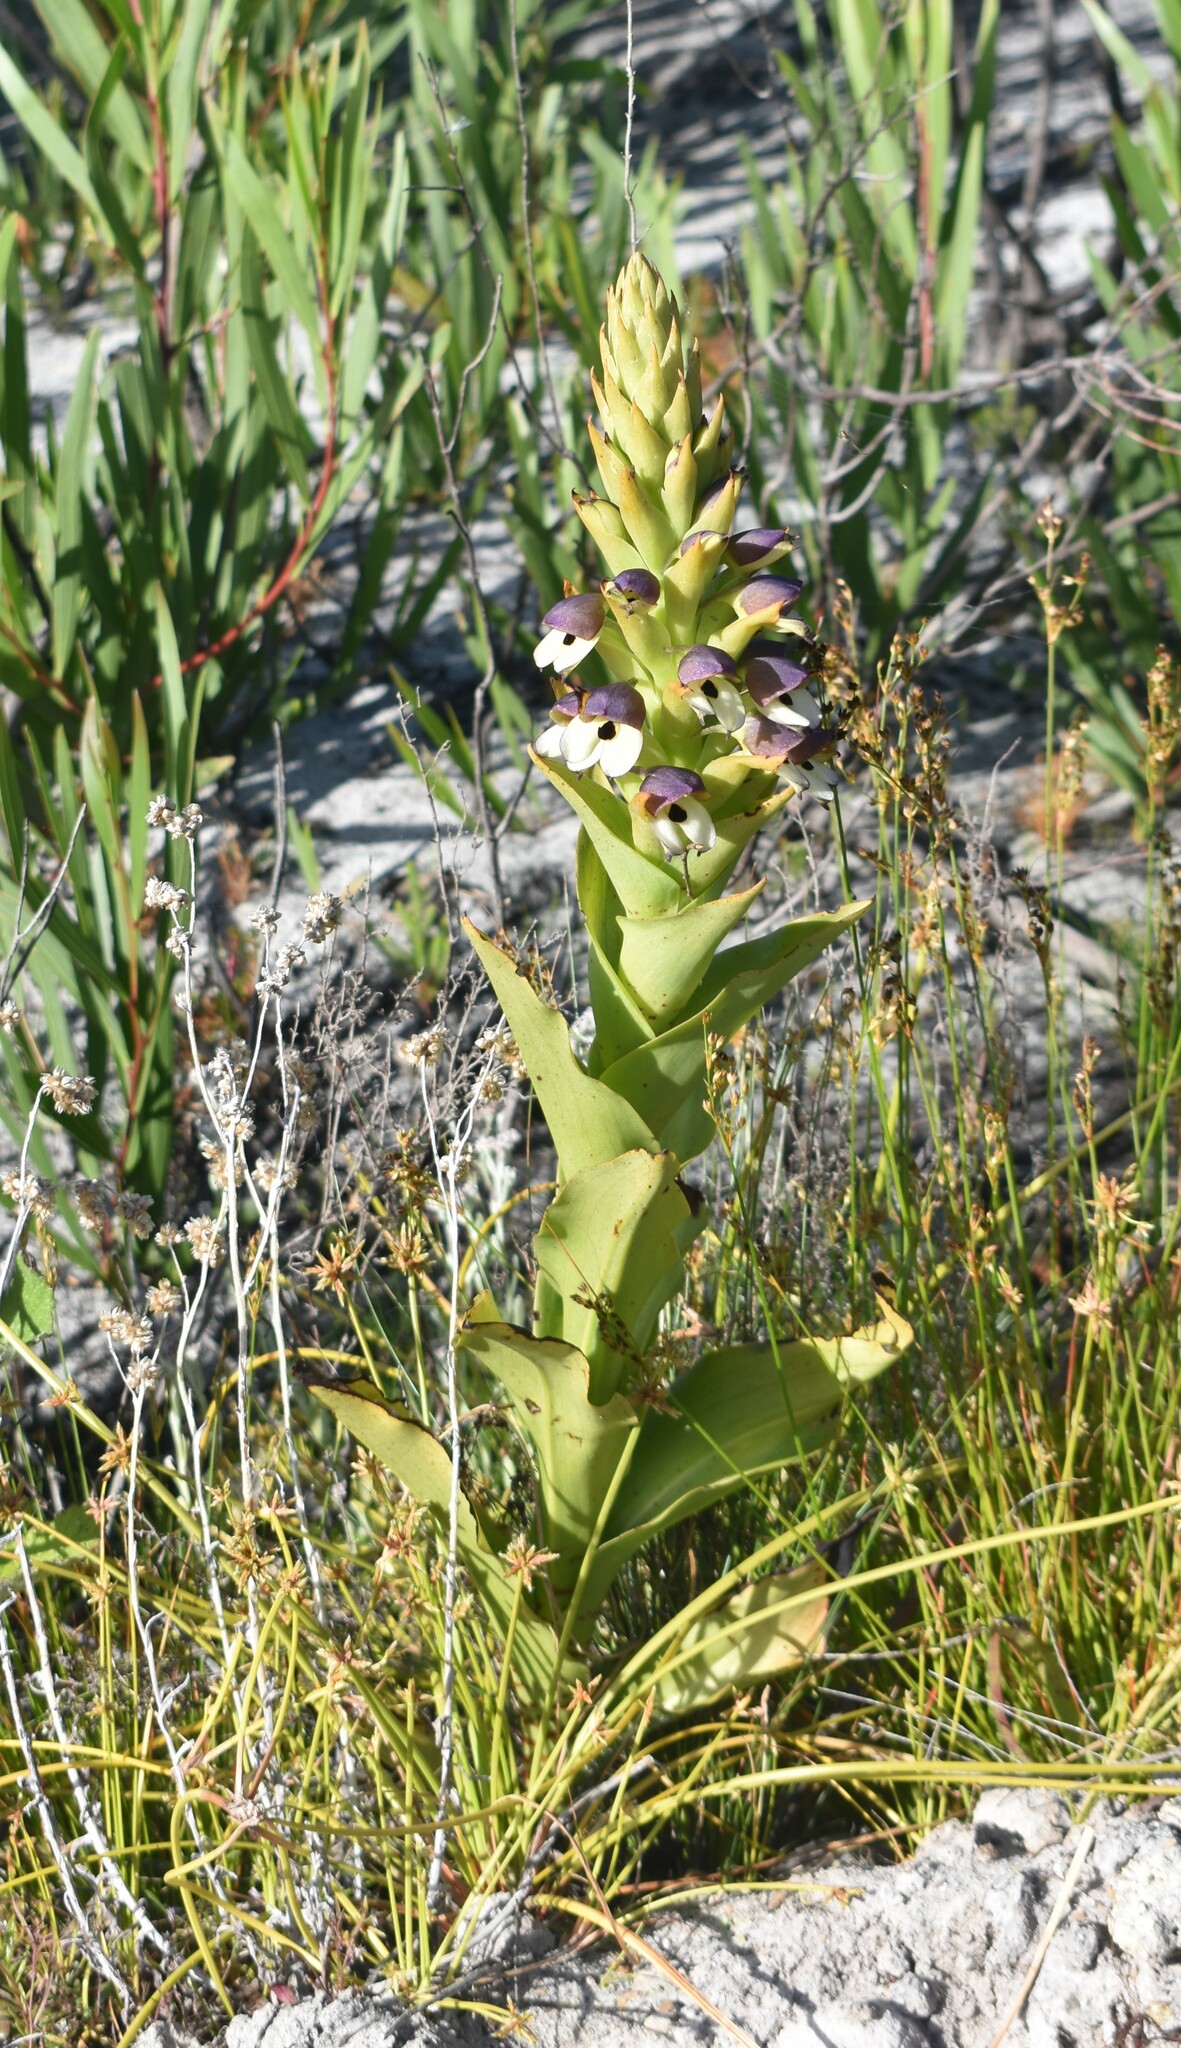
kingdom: Plantae
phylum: Tracheophyta
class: Liliopsida
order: Asparagales
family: Orchidaceae
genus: Disa
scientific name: Disa cornuta
